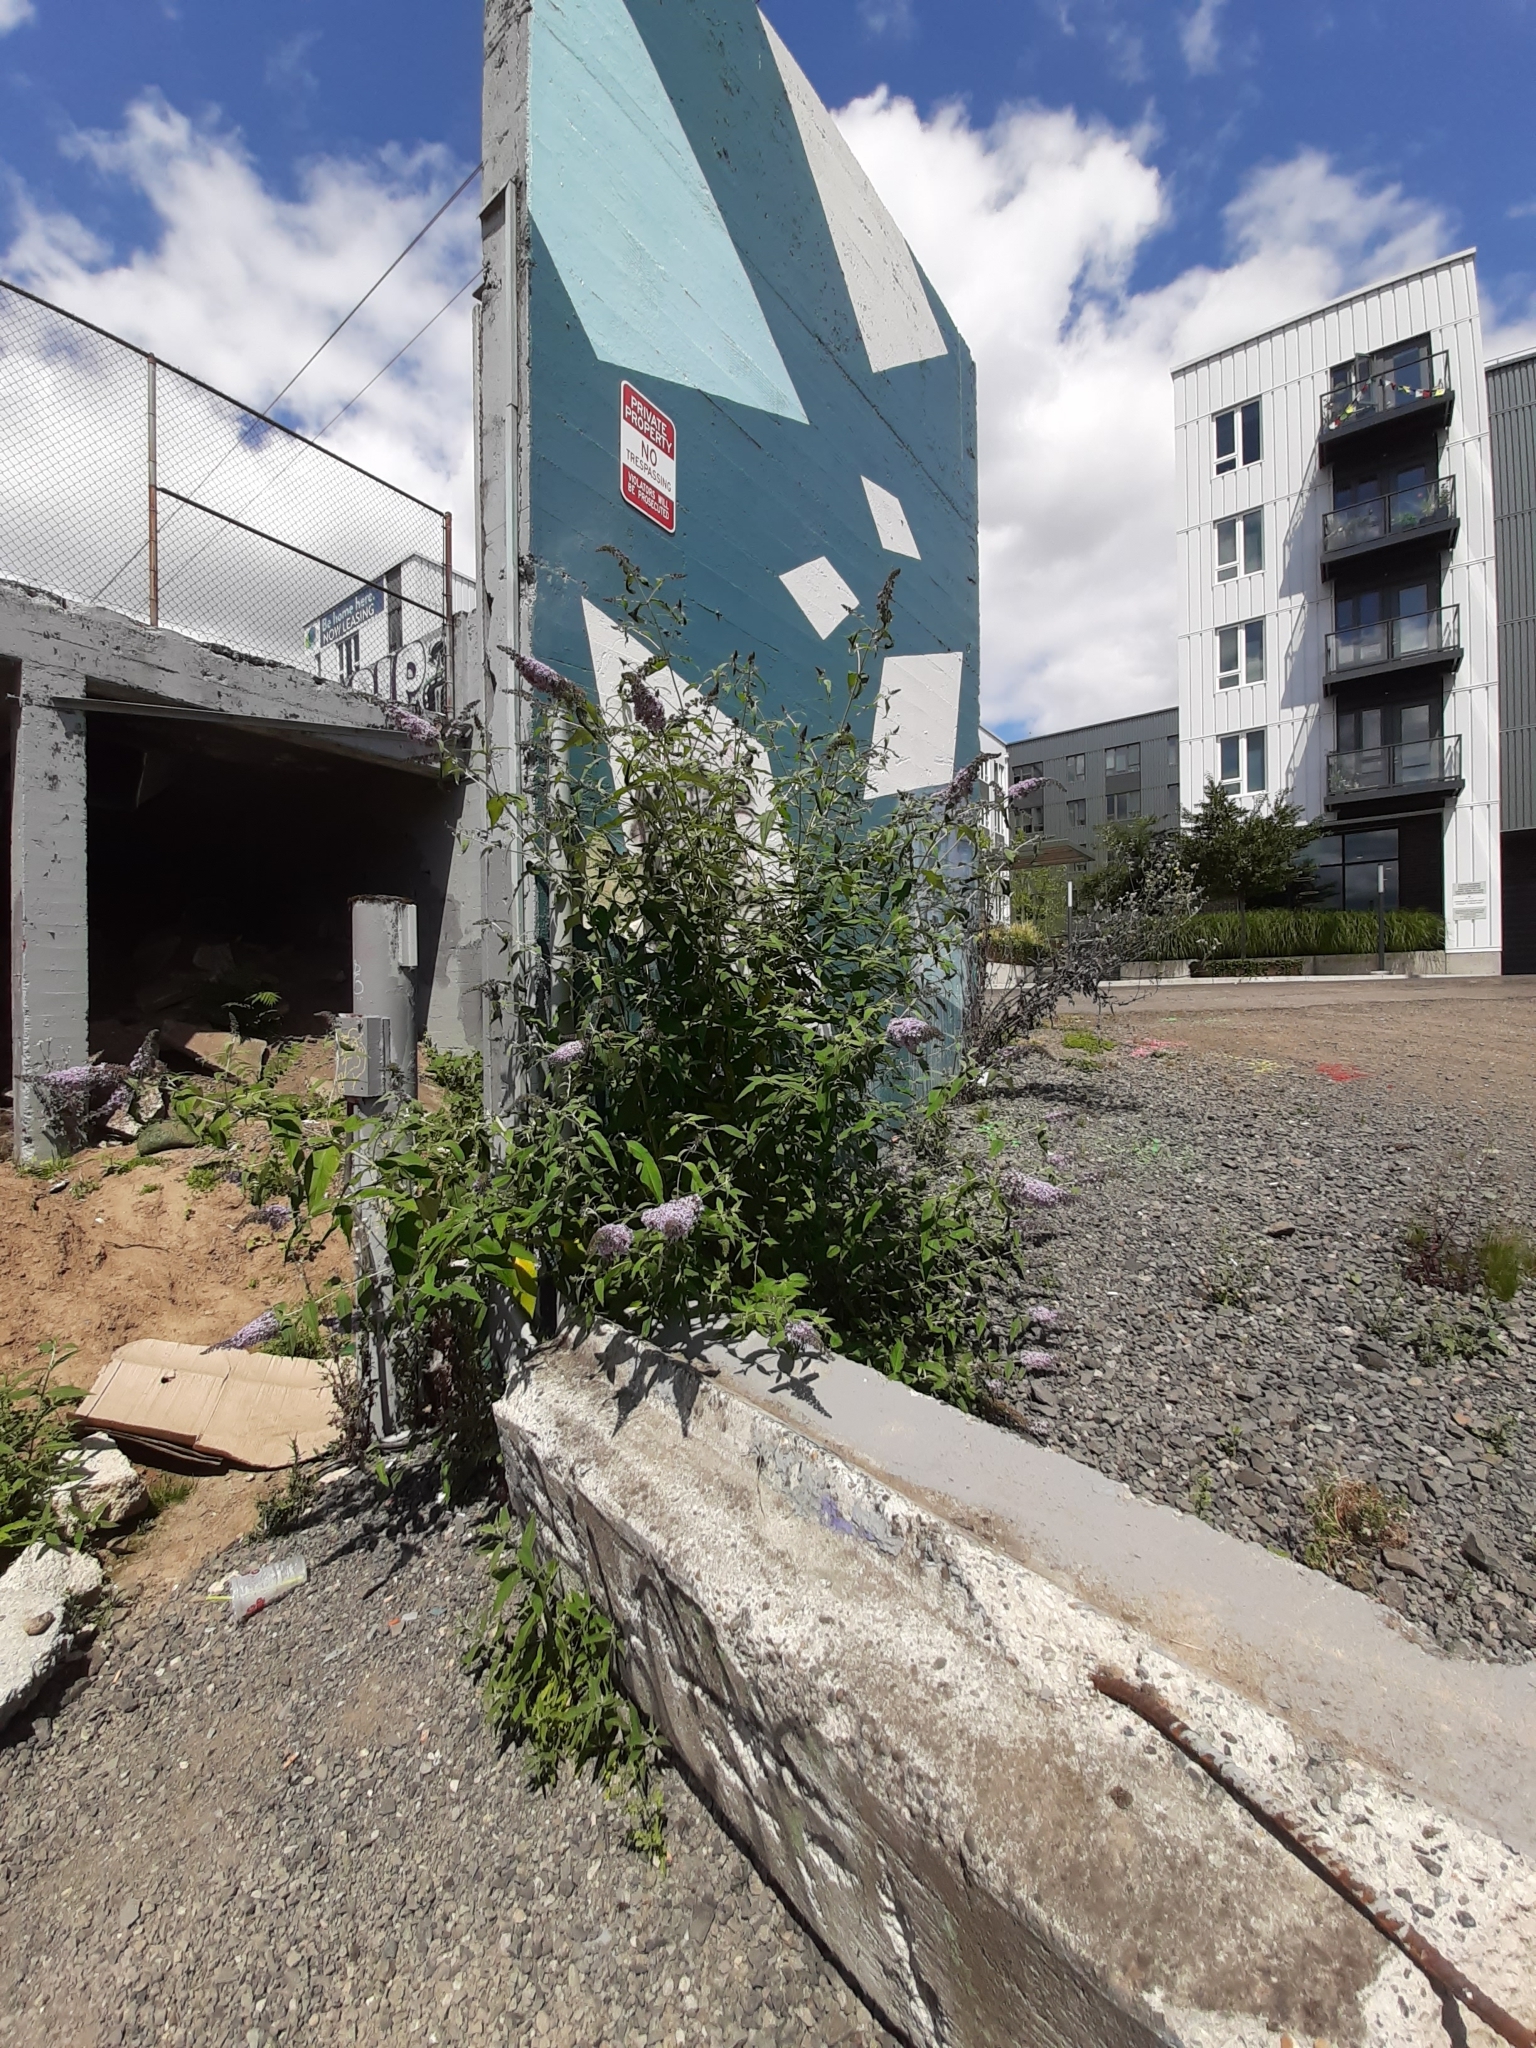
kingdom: Plantae
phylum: Tracheophyta
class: Magnoliopsida
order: Lamiales
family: Scrophulariaceae
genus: Buddleja
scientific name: Buddleja davidii
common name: Butterfly-bush
